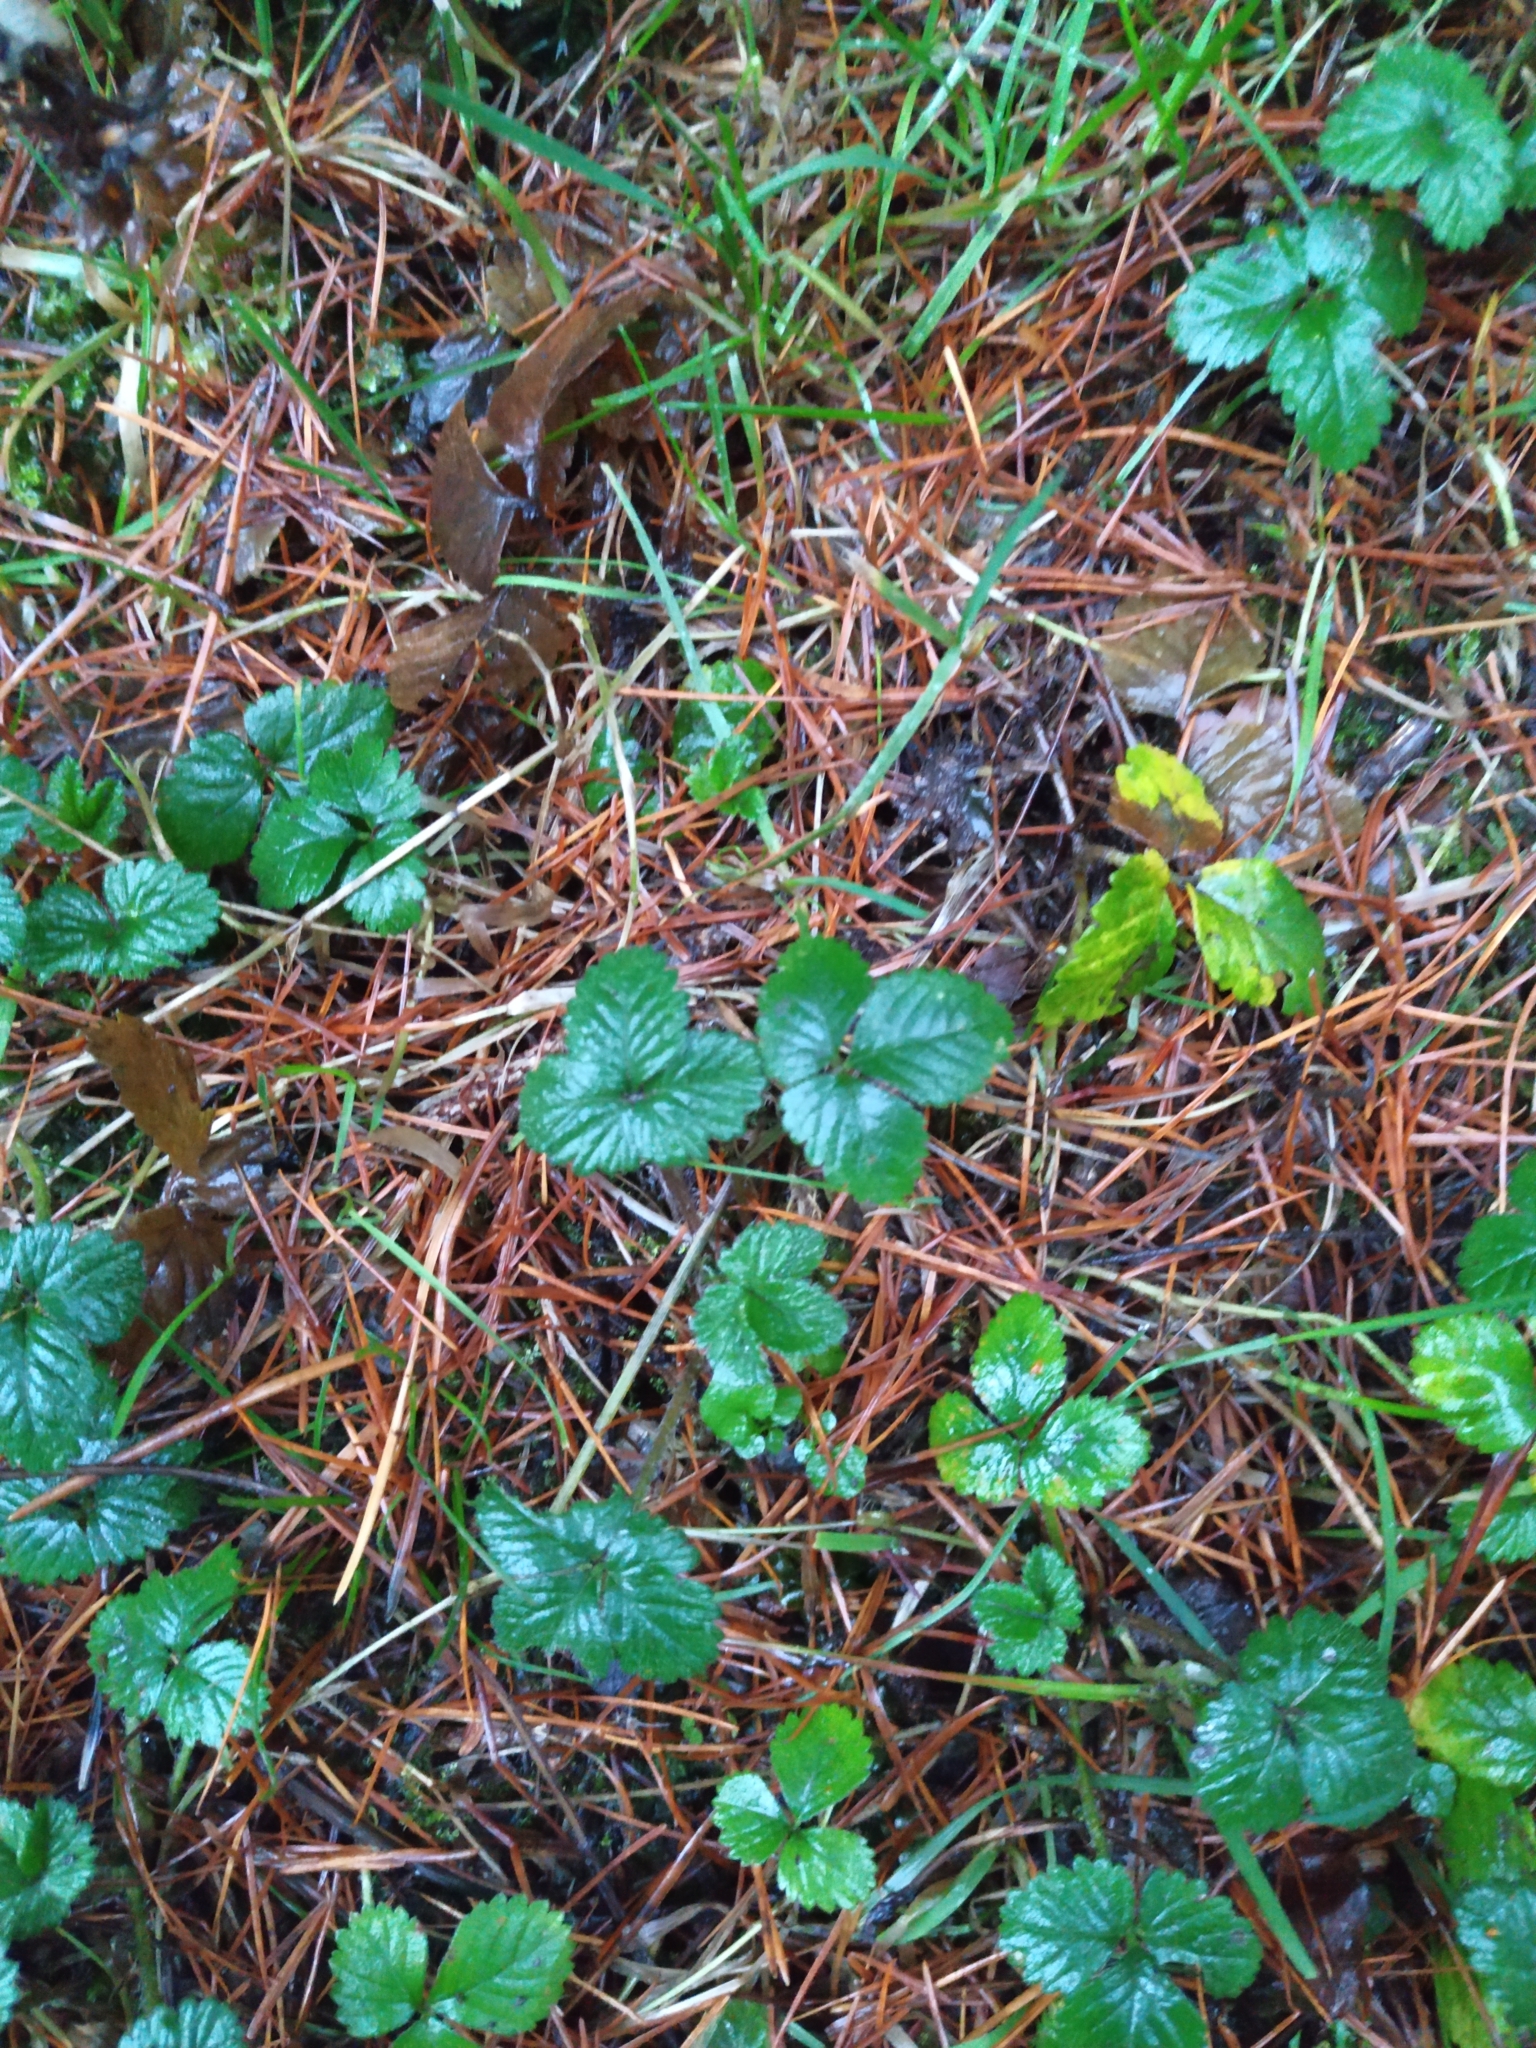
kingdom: Plantae
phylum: Tracheophyta
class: Magnoliopsida
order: Rosales
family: Rosaceae
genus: Potentilla
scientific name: Potentilla indica
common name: Yellow-flowered strawberry
